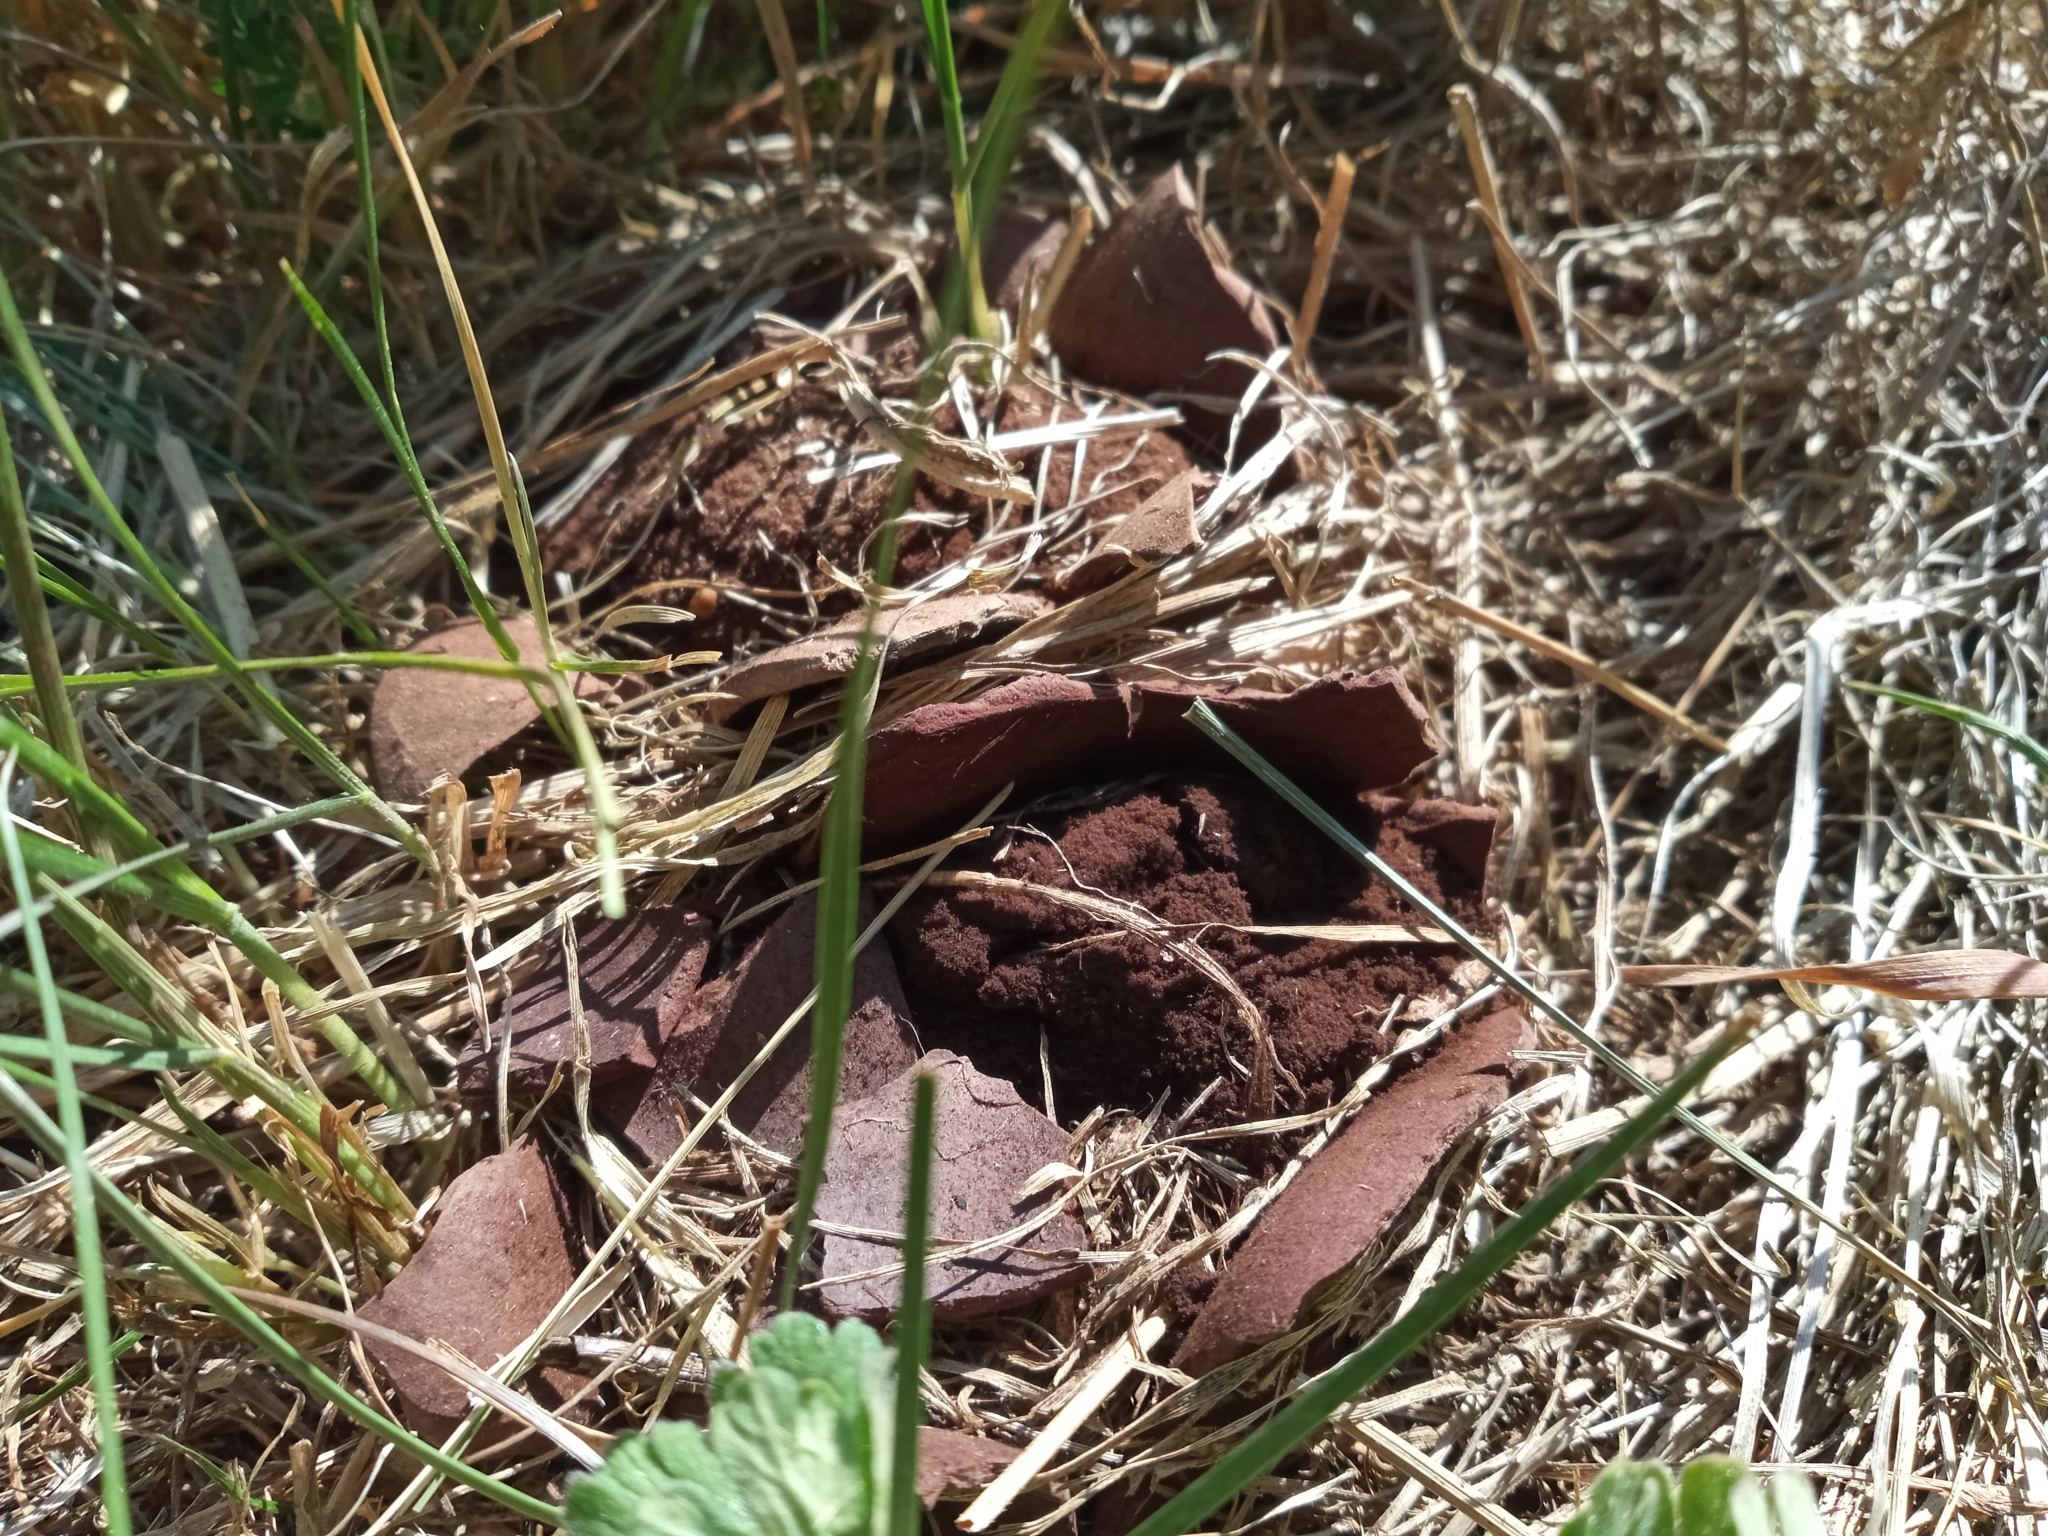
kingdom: Fungi
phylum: Basidiomycota
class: Agaricomycetes
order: Agaricales
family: Lycoperdaceae
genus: Calvatia
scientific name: Calvatia gigantea
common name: Giant puffball
